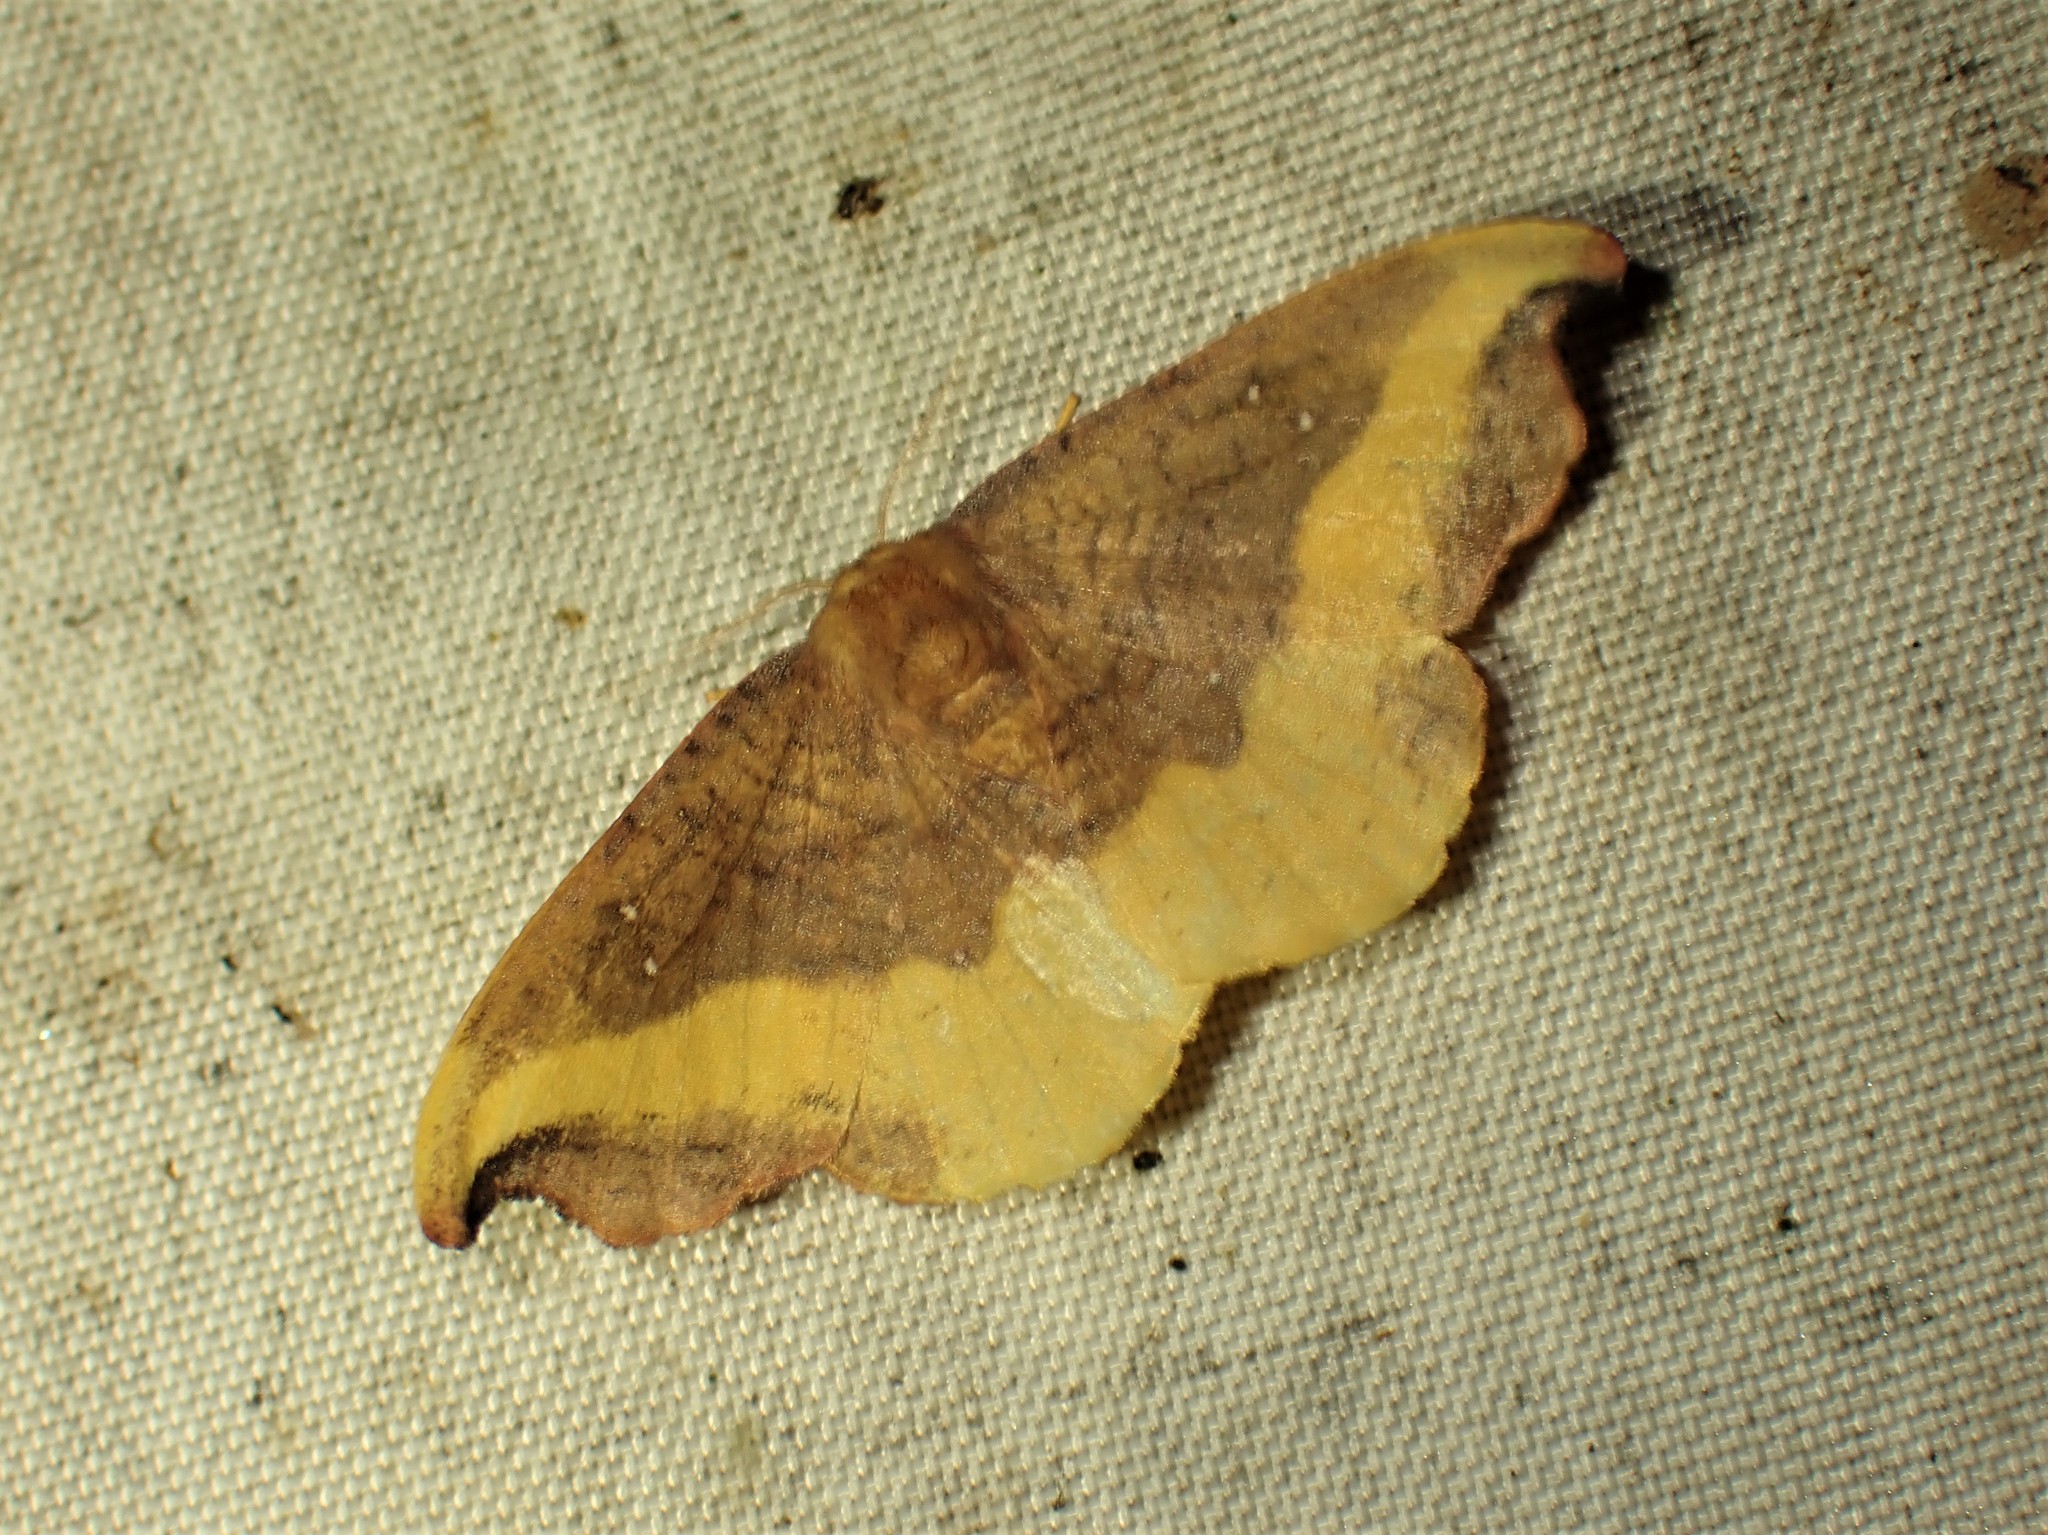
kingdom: Animalia
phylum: Arthropoda
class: Insecta
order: Lepidoptera
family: Drepanidae
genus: Oreta
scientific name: Oreta rosea
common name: Rose hooktip
